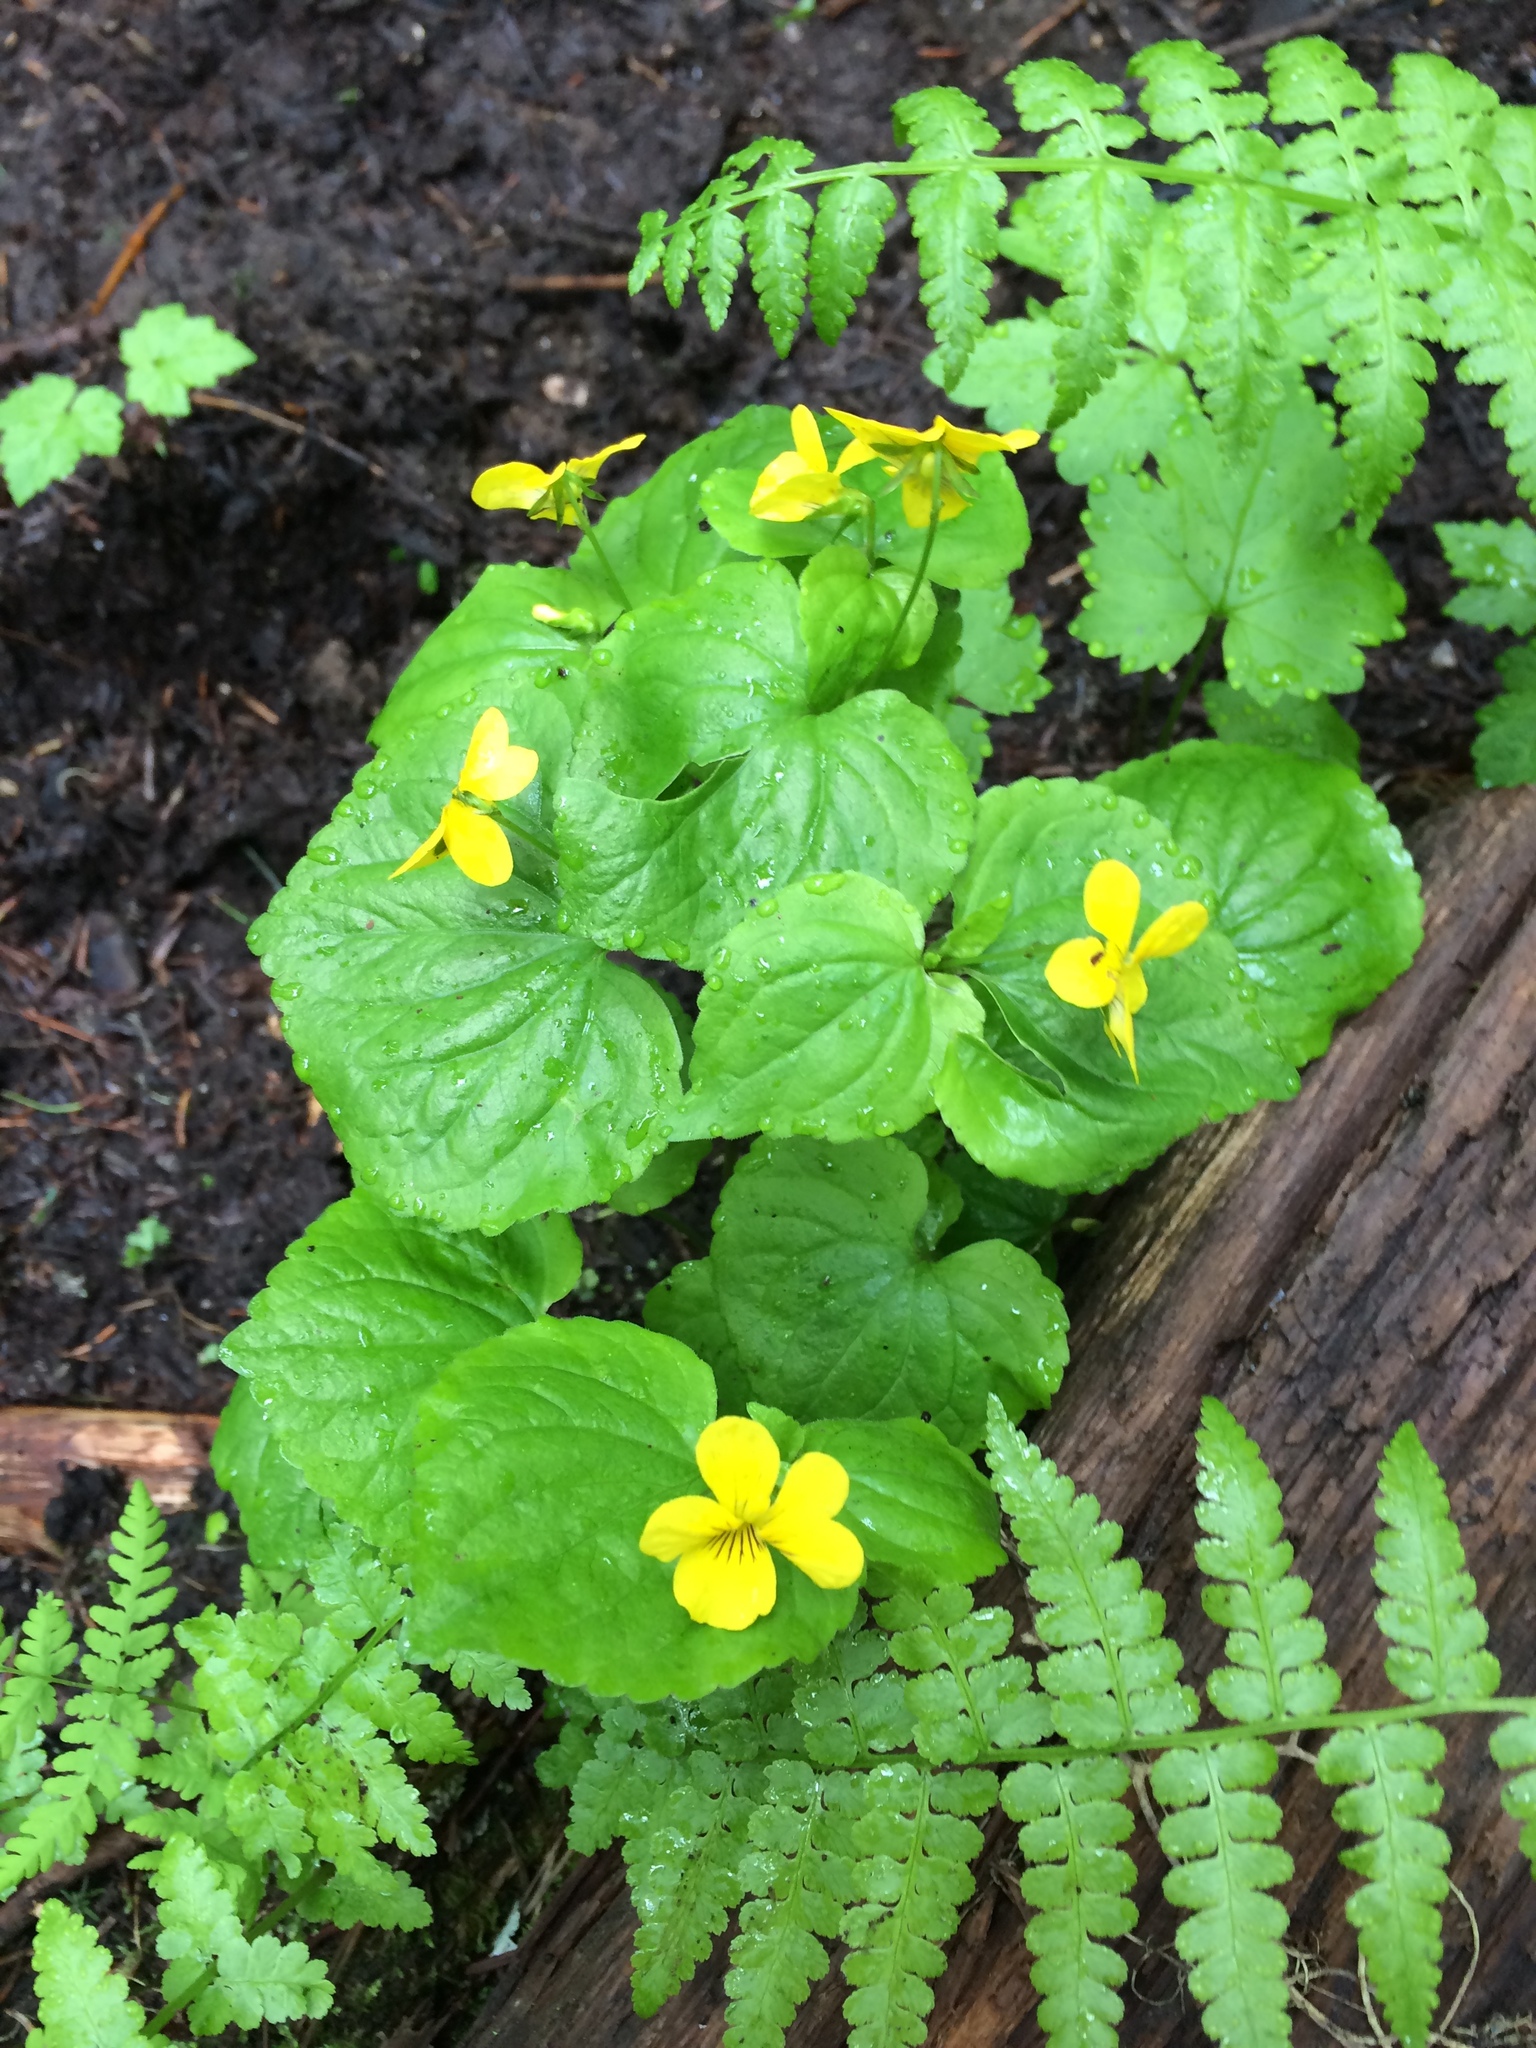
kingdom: Plantae
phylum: Tracheophyta
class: Magnoliopsida
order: Malpighiales
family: Violaceae
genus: Viola
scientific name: Viola glabella
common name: Stream violet
